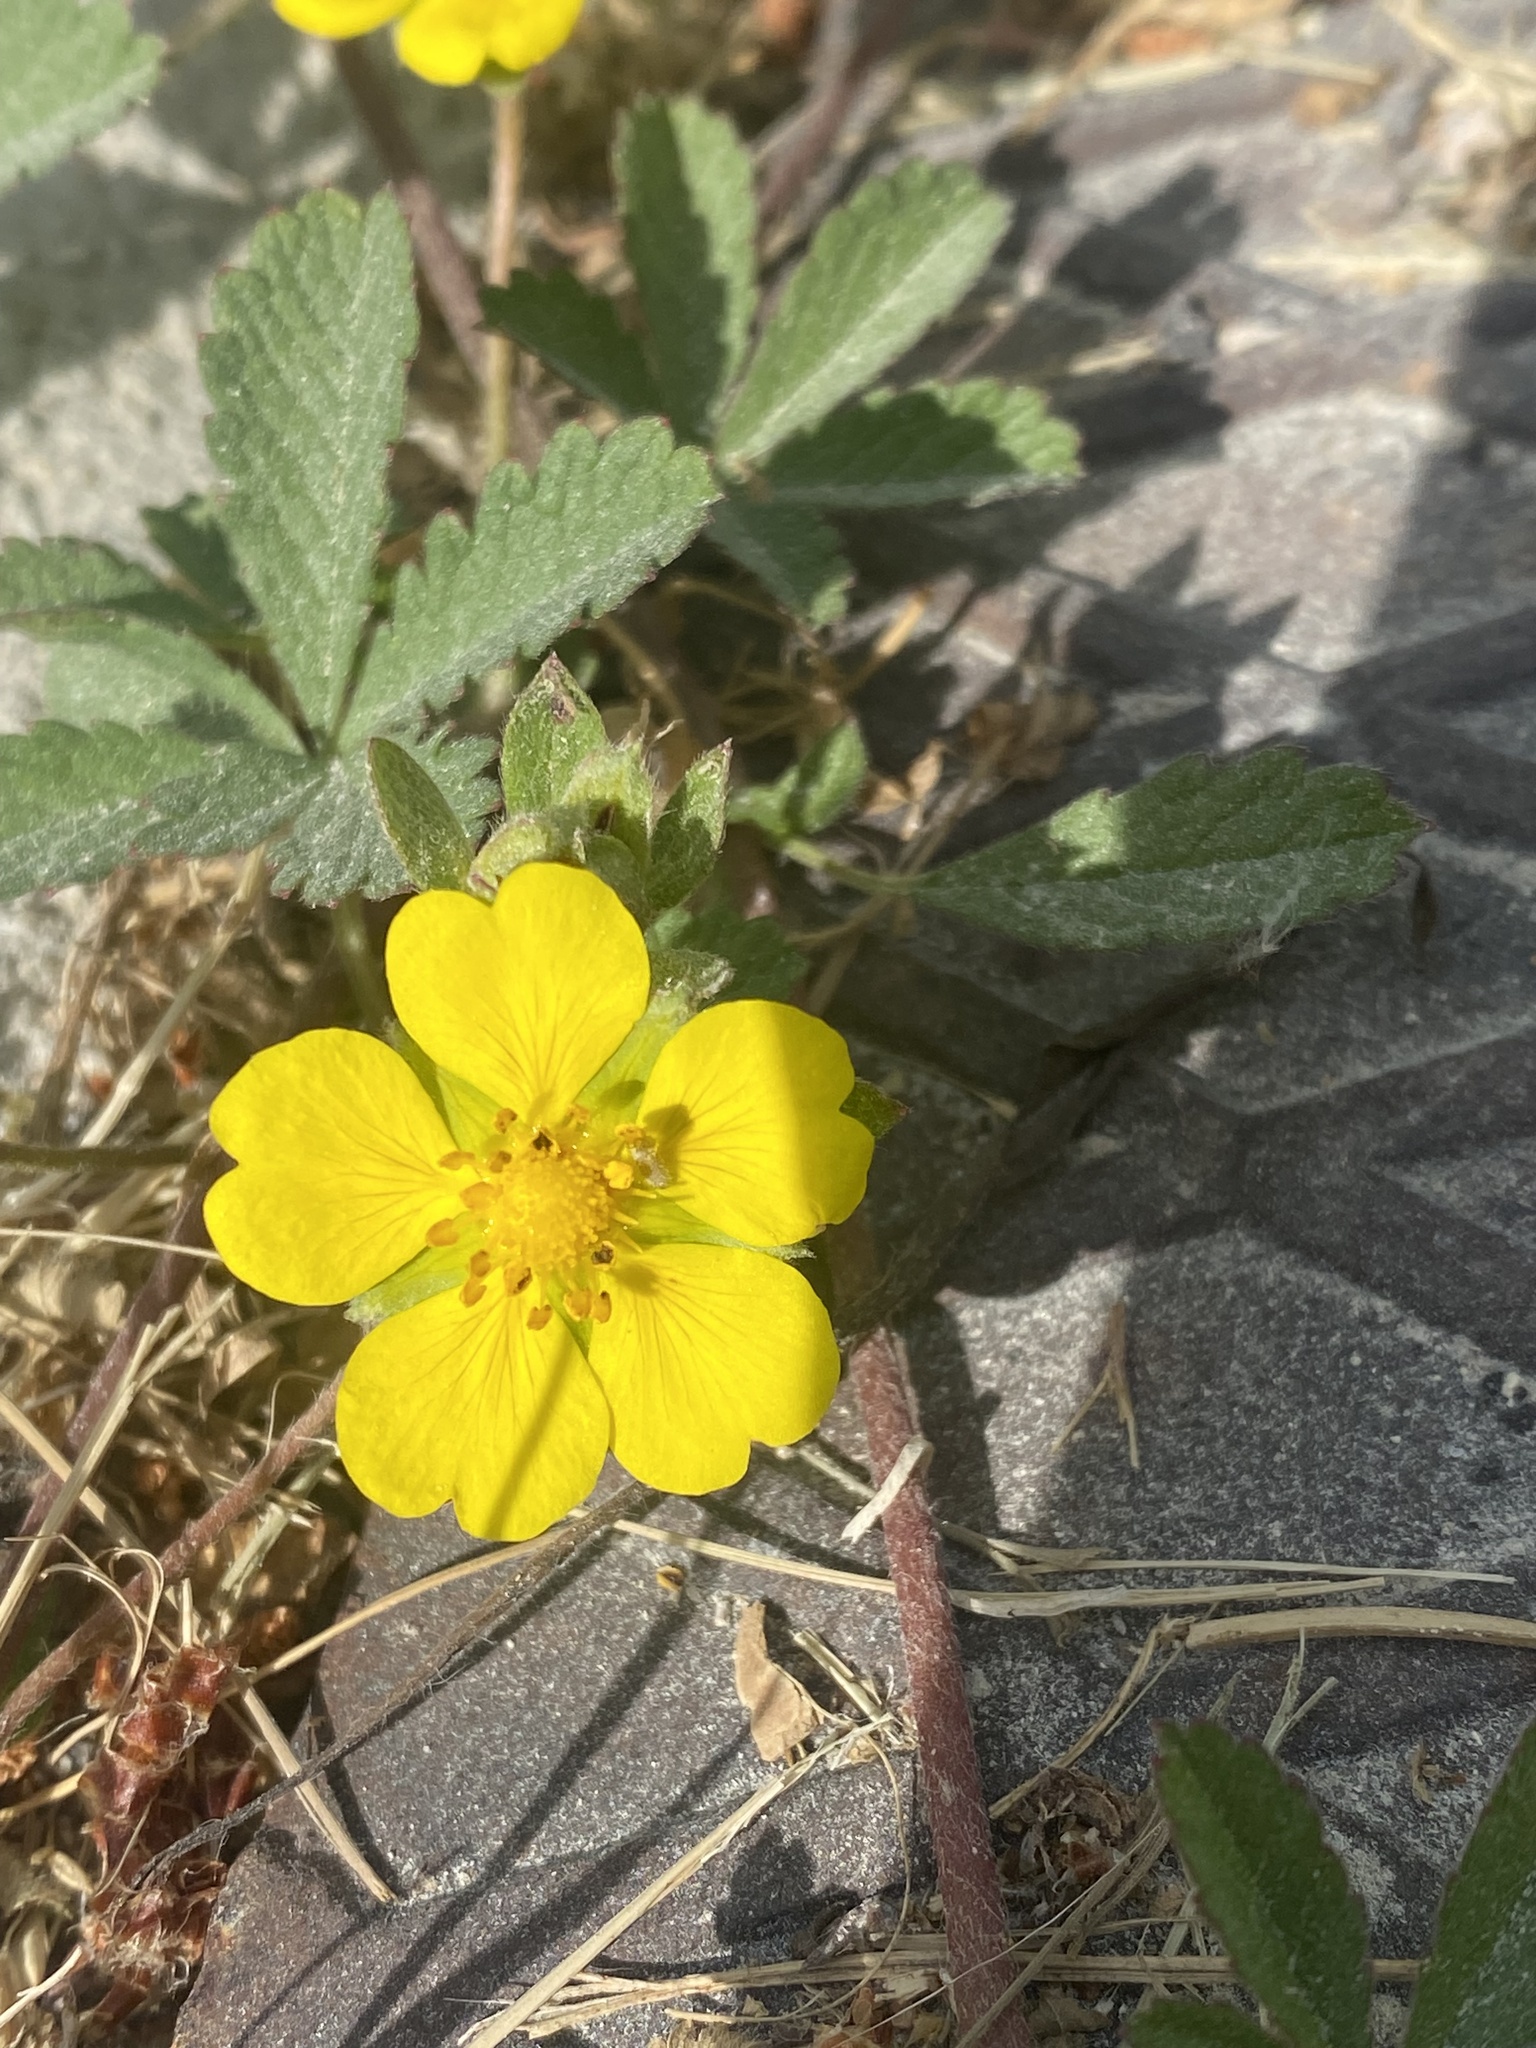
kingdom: Plantae
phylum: Tracheophyta
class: Magnoliopsida
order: Rosales
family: Rosaceae
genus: Argentina
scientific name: Argentina anserina
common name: Common silverweed
